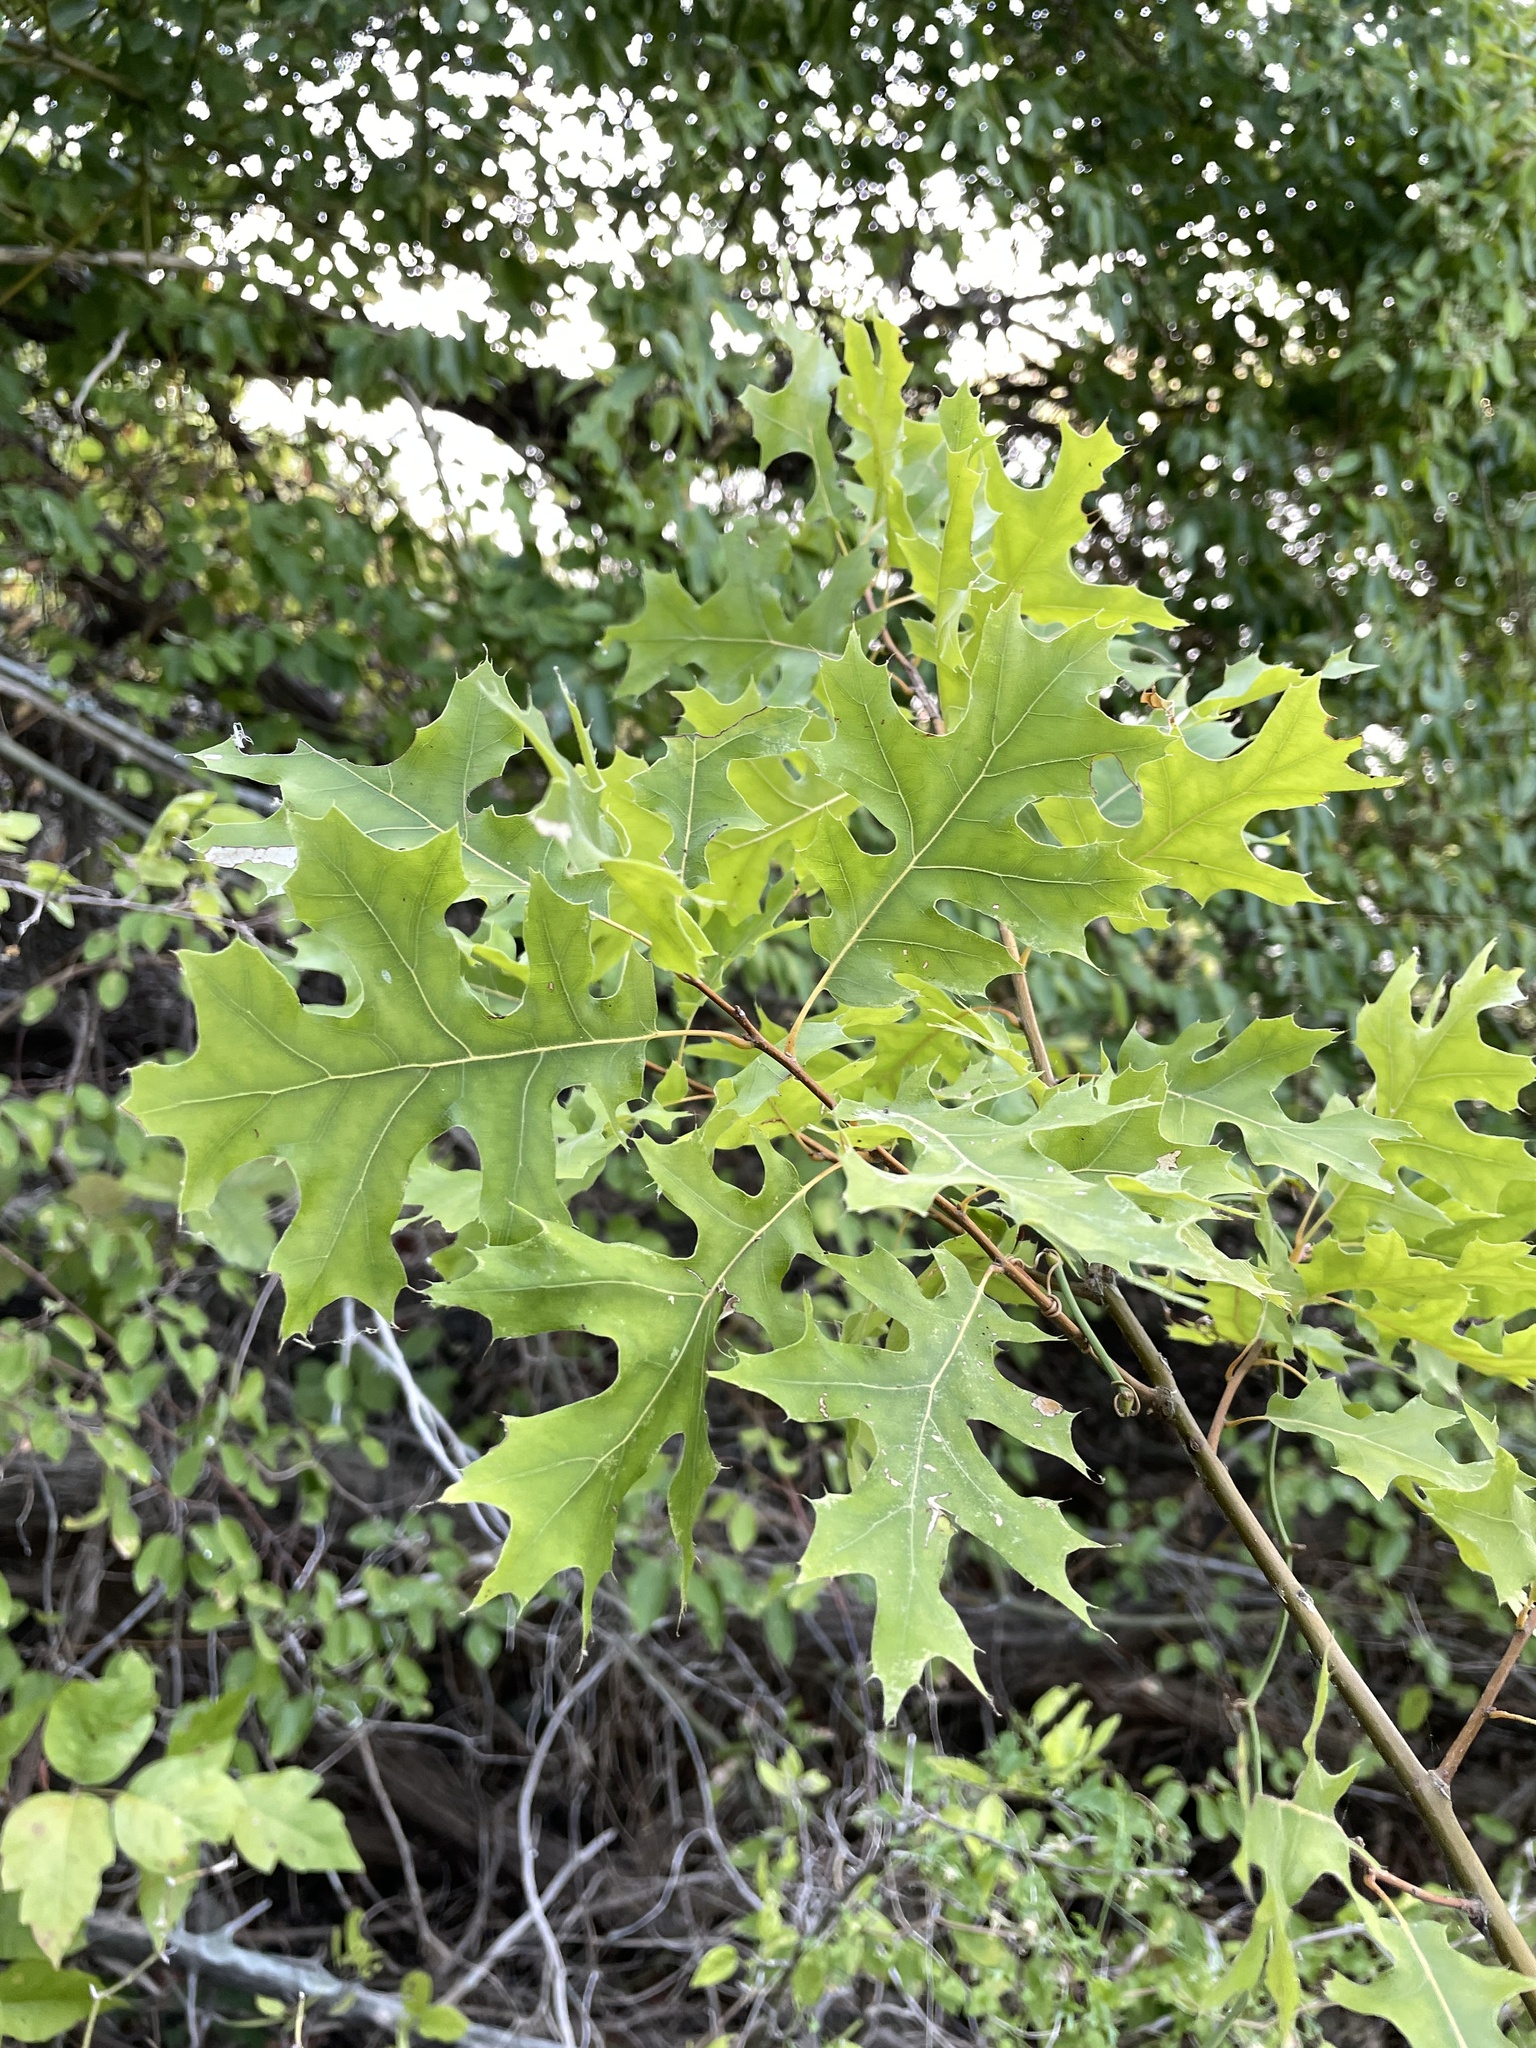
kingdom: Plantae
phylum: Tracheophyta
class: Magnoliopsida
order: Fagales
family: Fagaceae
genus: Quercus
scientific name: Quercus buckleyi
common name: Buckley oak
